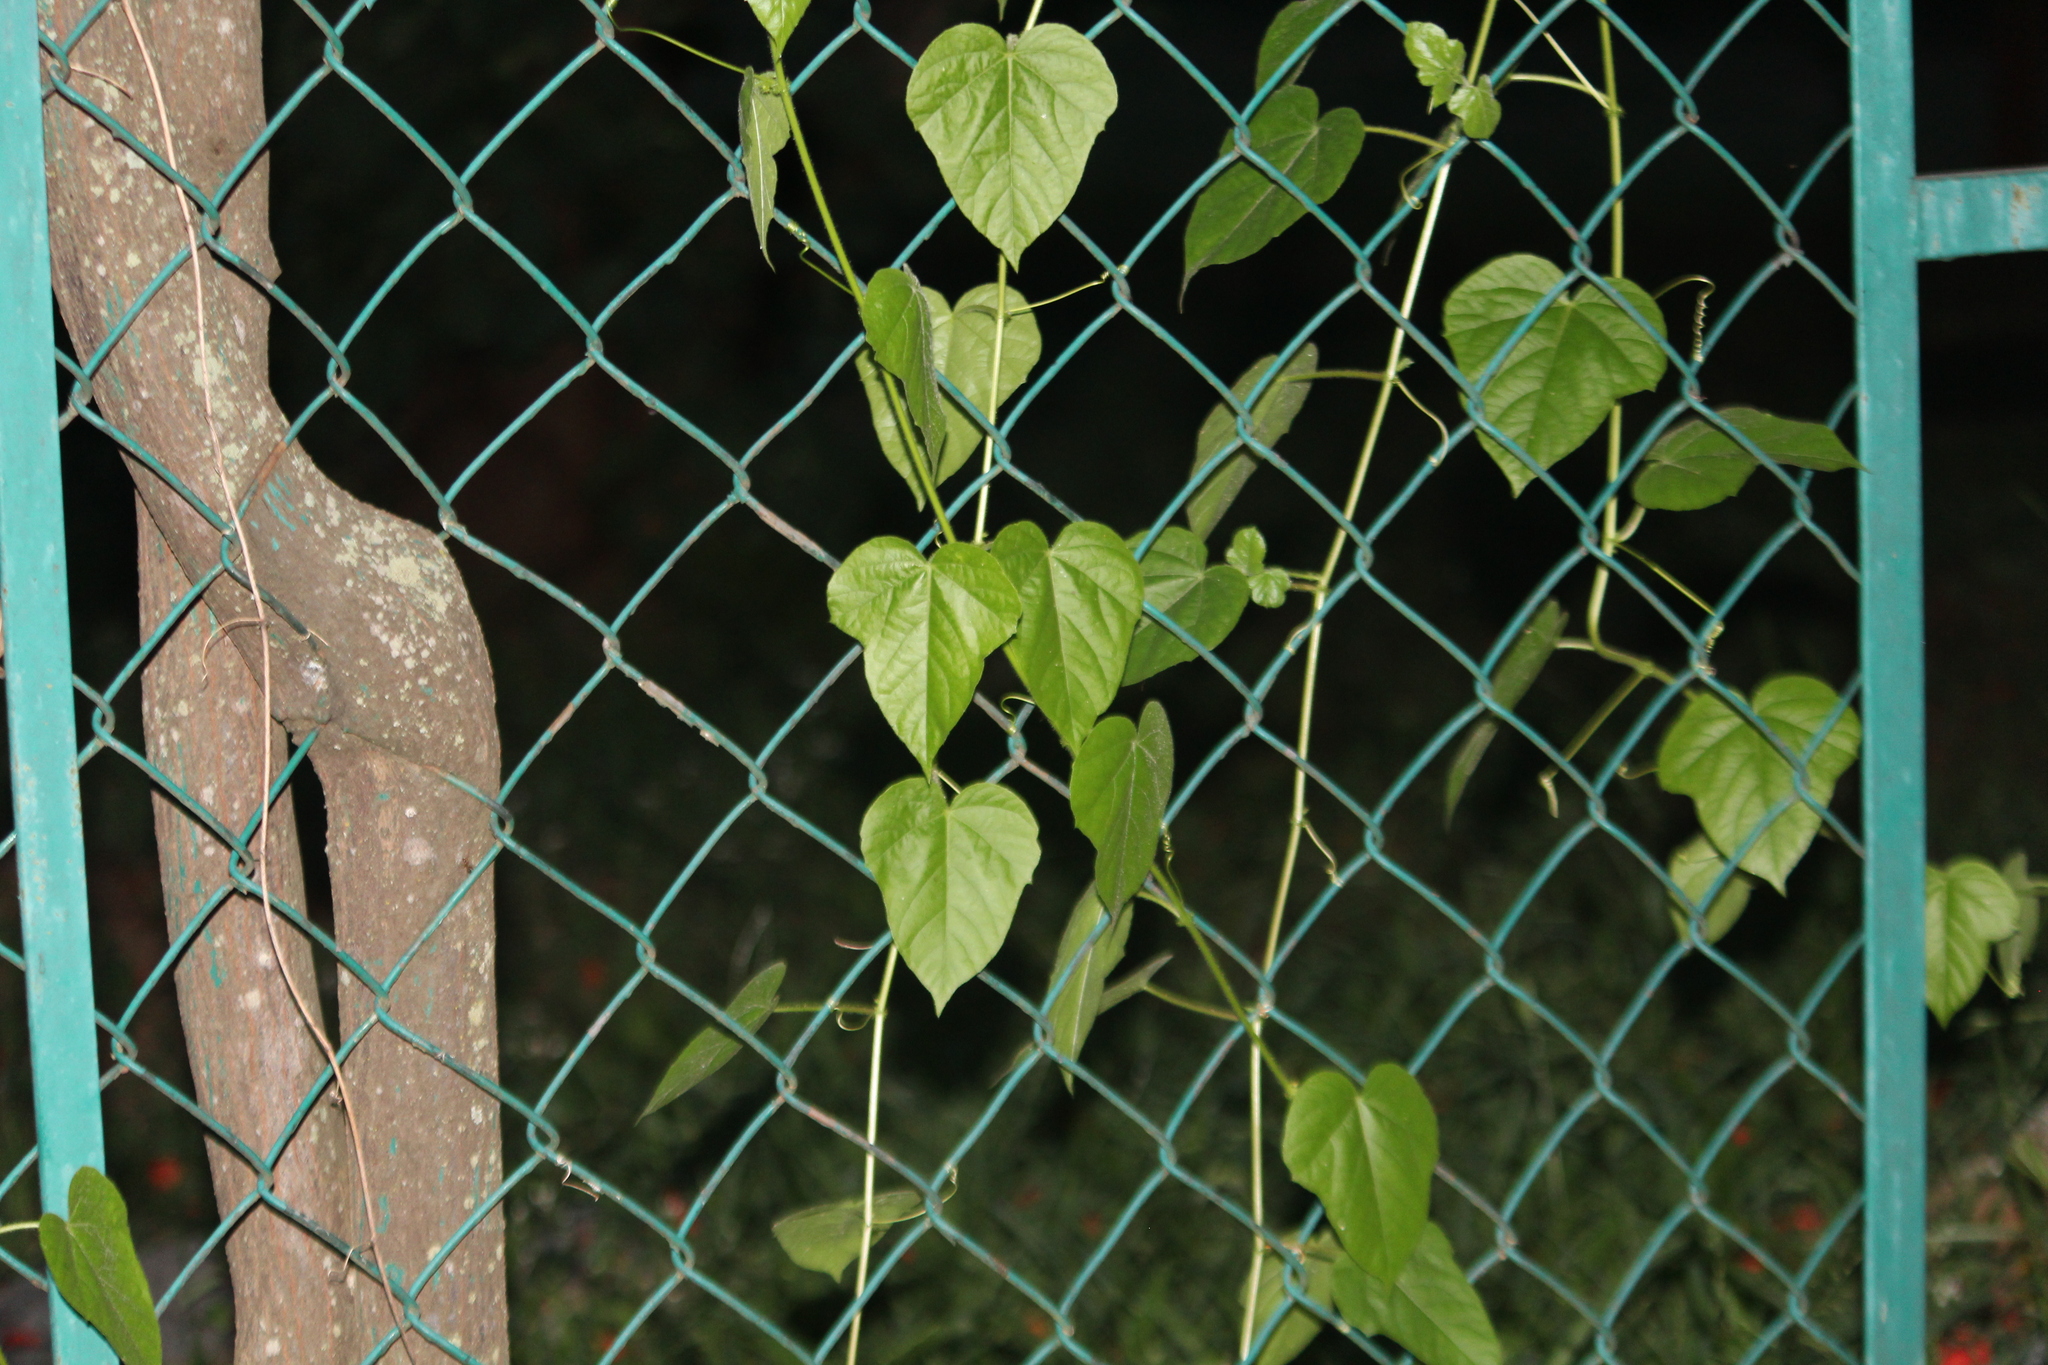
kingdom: Plantae
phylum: Tracheophyta
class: Magnoliopsida
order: Malpighiales
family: Passifloraceae
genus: Passiflora
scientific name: Passiflora vesicaria
